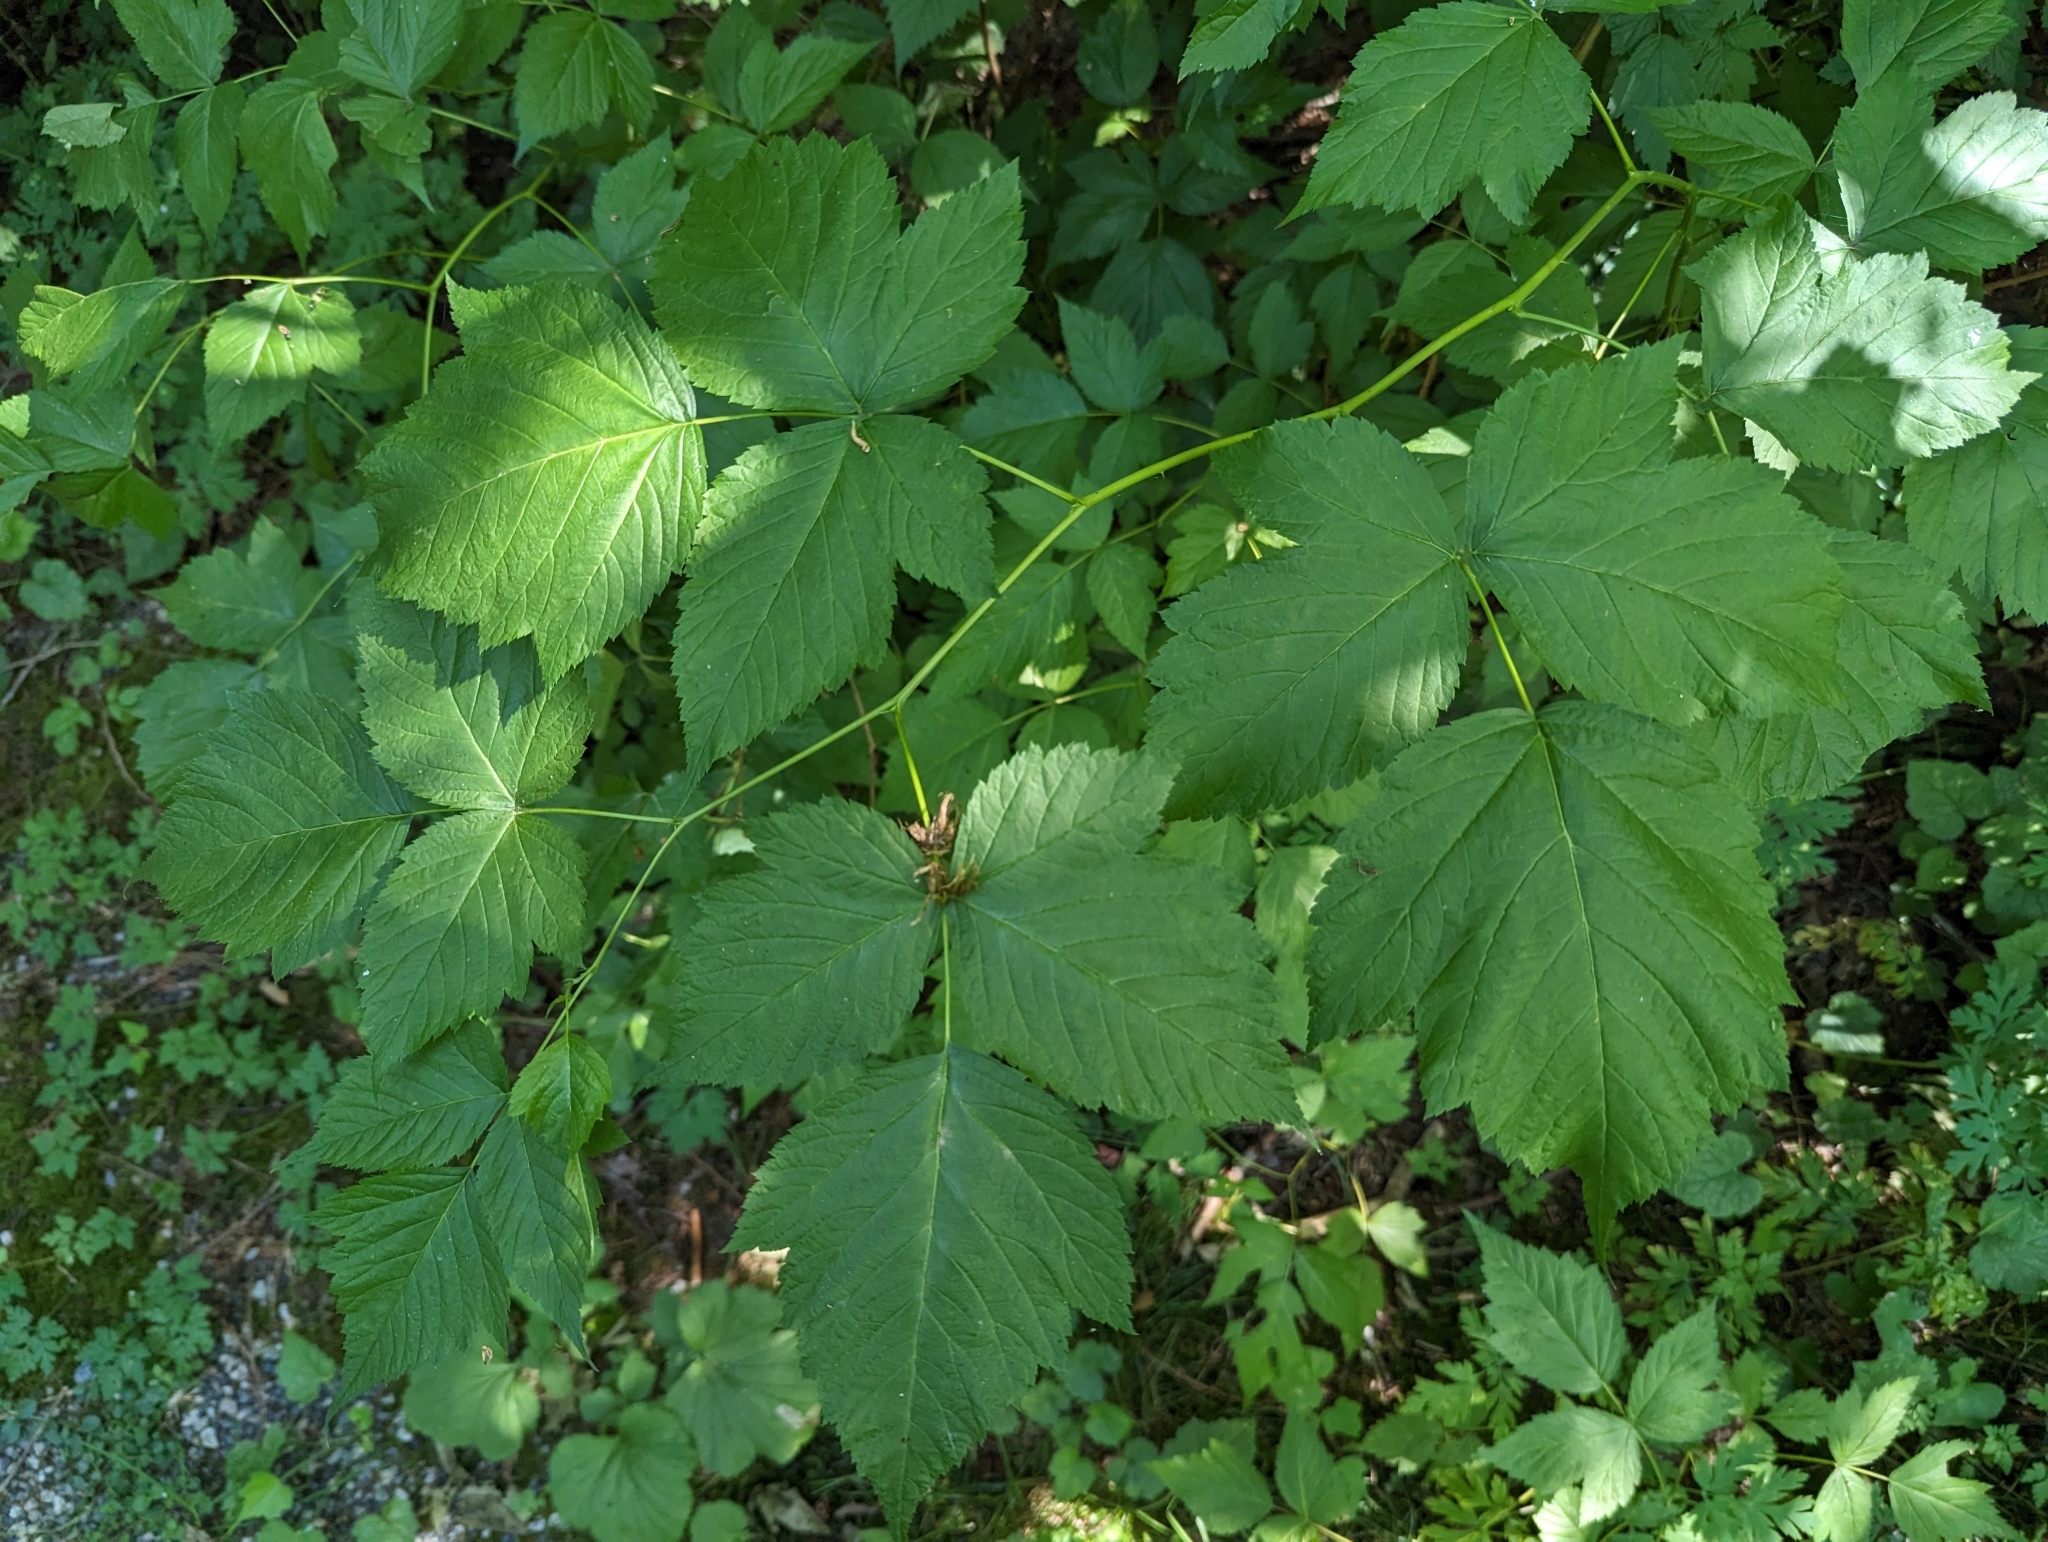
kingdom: Plantae
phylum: Tracheophyta
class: Magnoliopsida
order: Rosales
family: Rosaceae
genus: Rubus
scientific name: Rubus spectabilis
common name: Salmonberry
